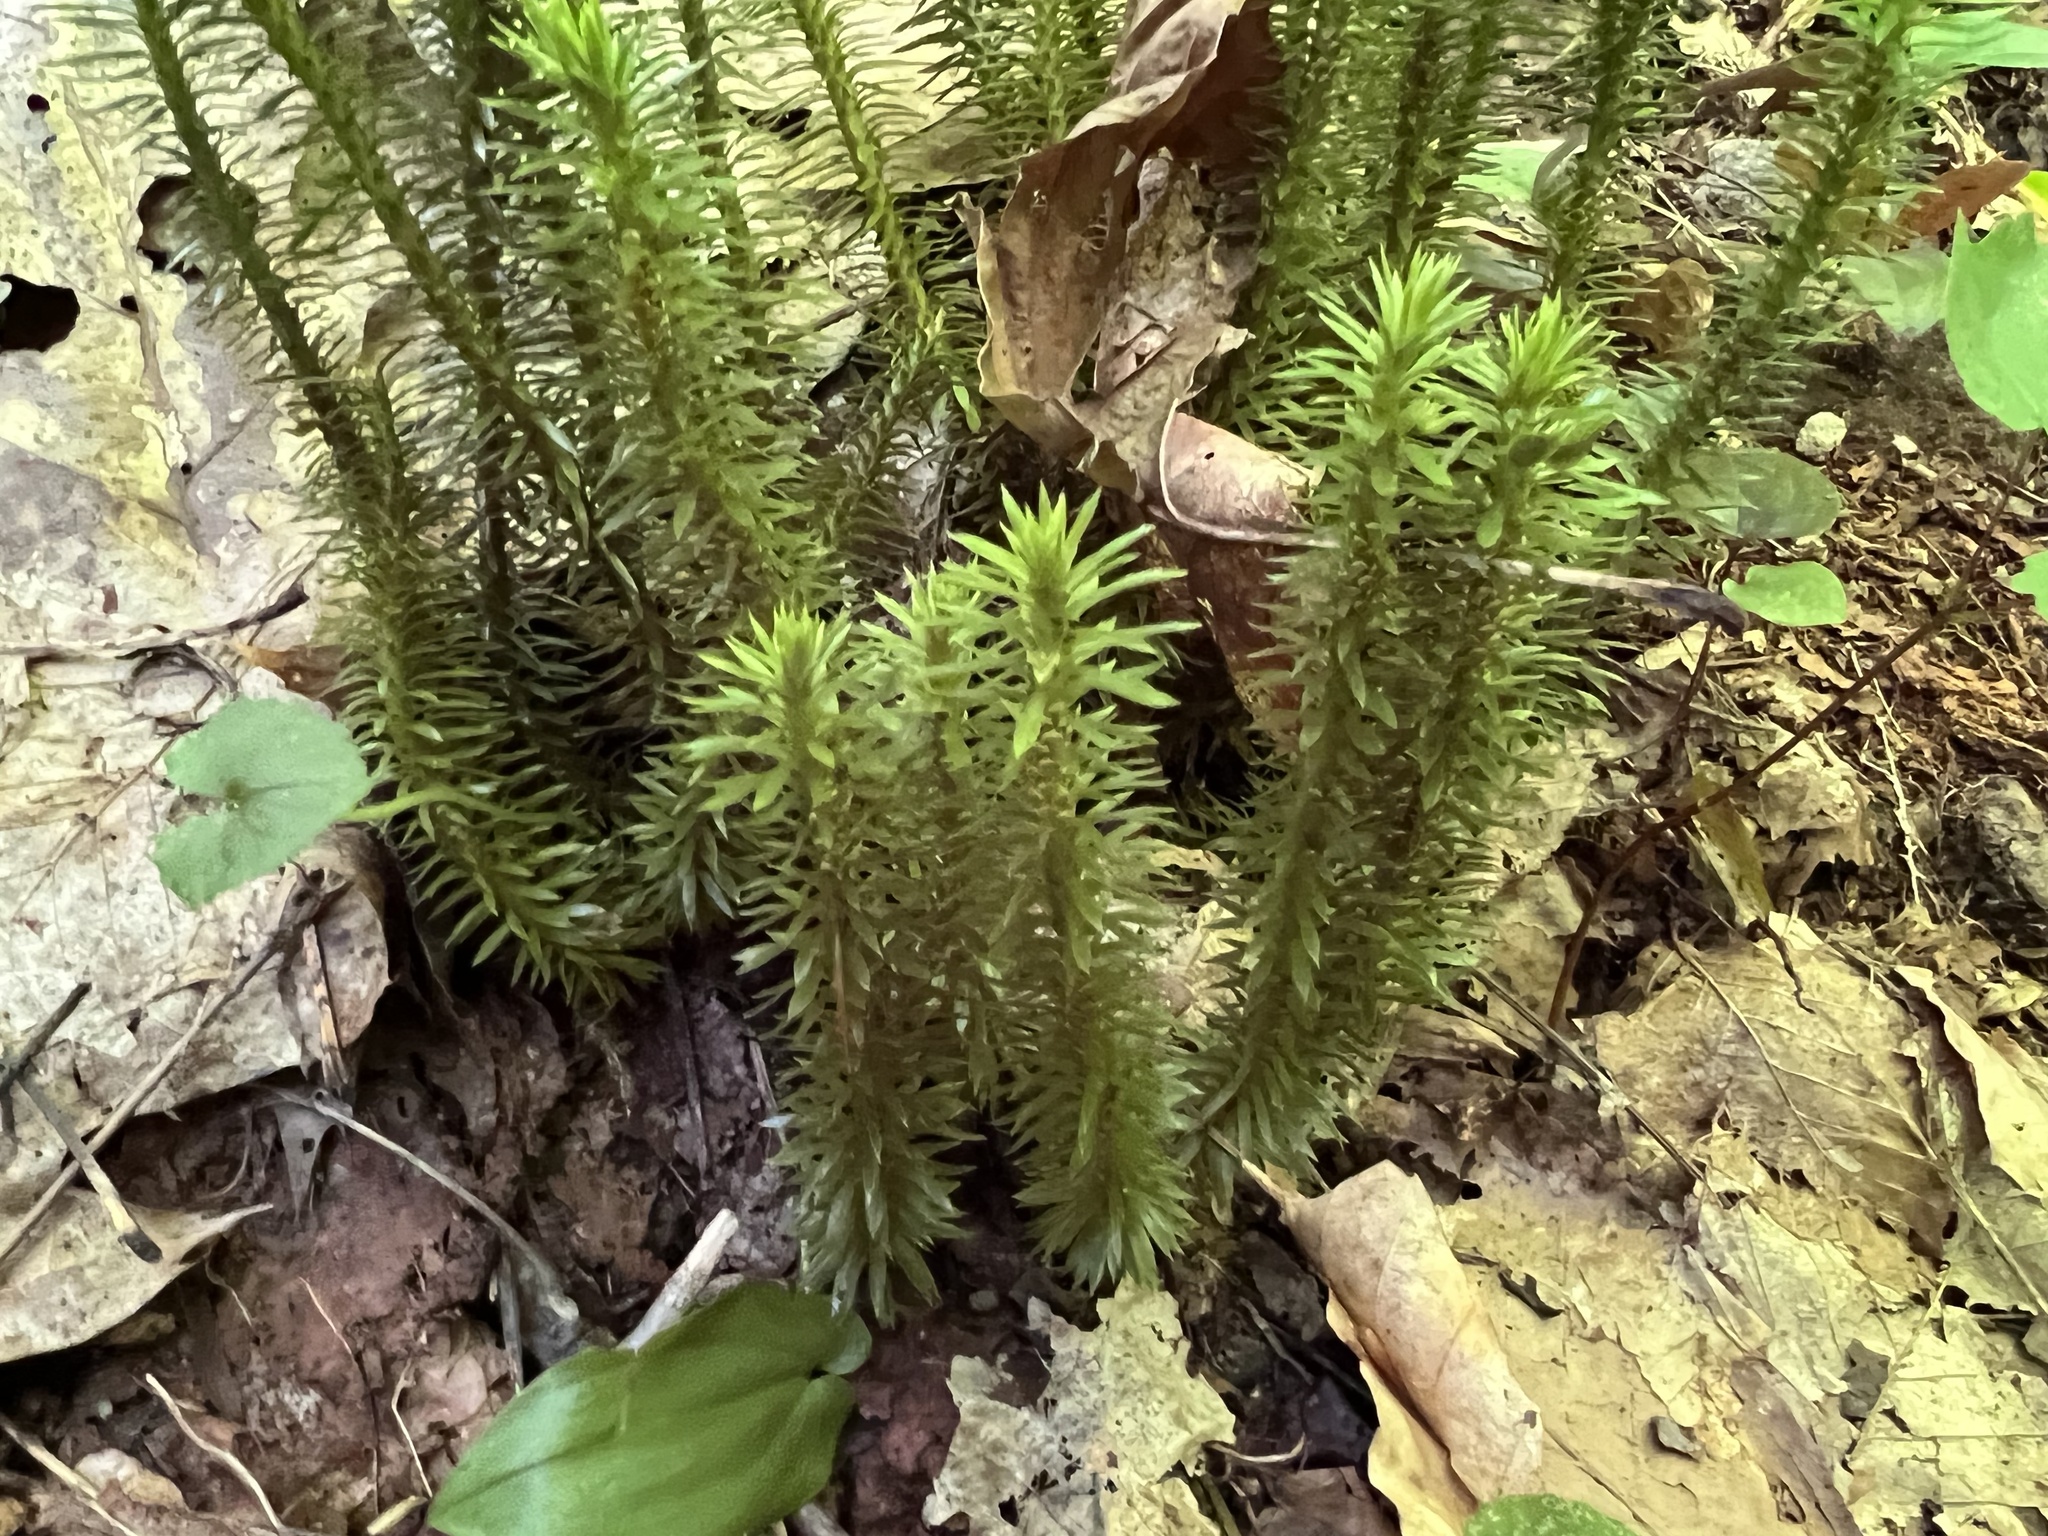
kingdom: Plantae
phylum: Tracheophyta
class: Lycopodiopsida
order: Lycopodiales
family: Lycopodiaceae
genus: Huperzia
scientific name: Huperzia lucidula
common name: Shining clubmoss
